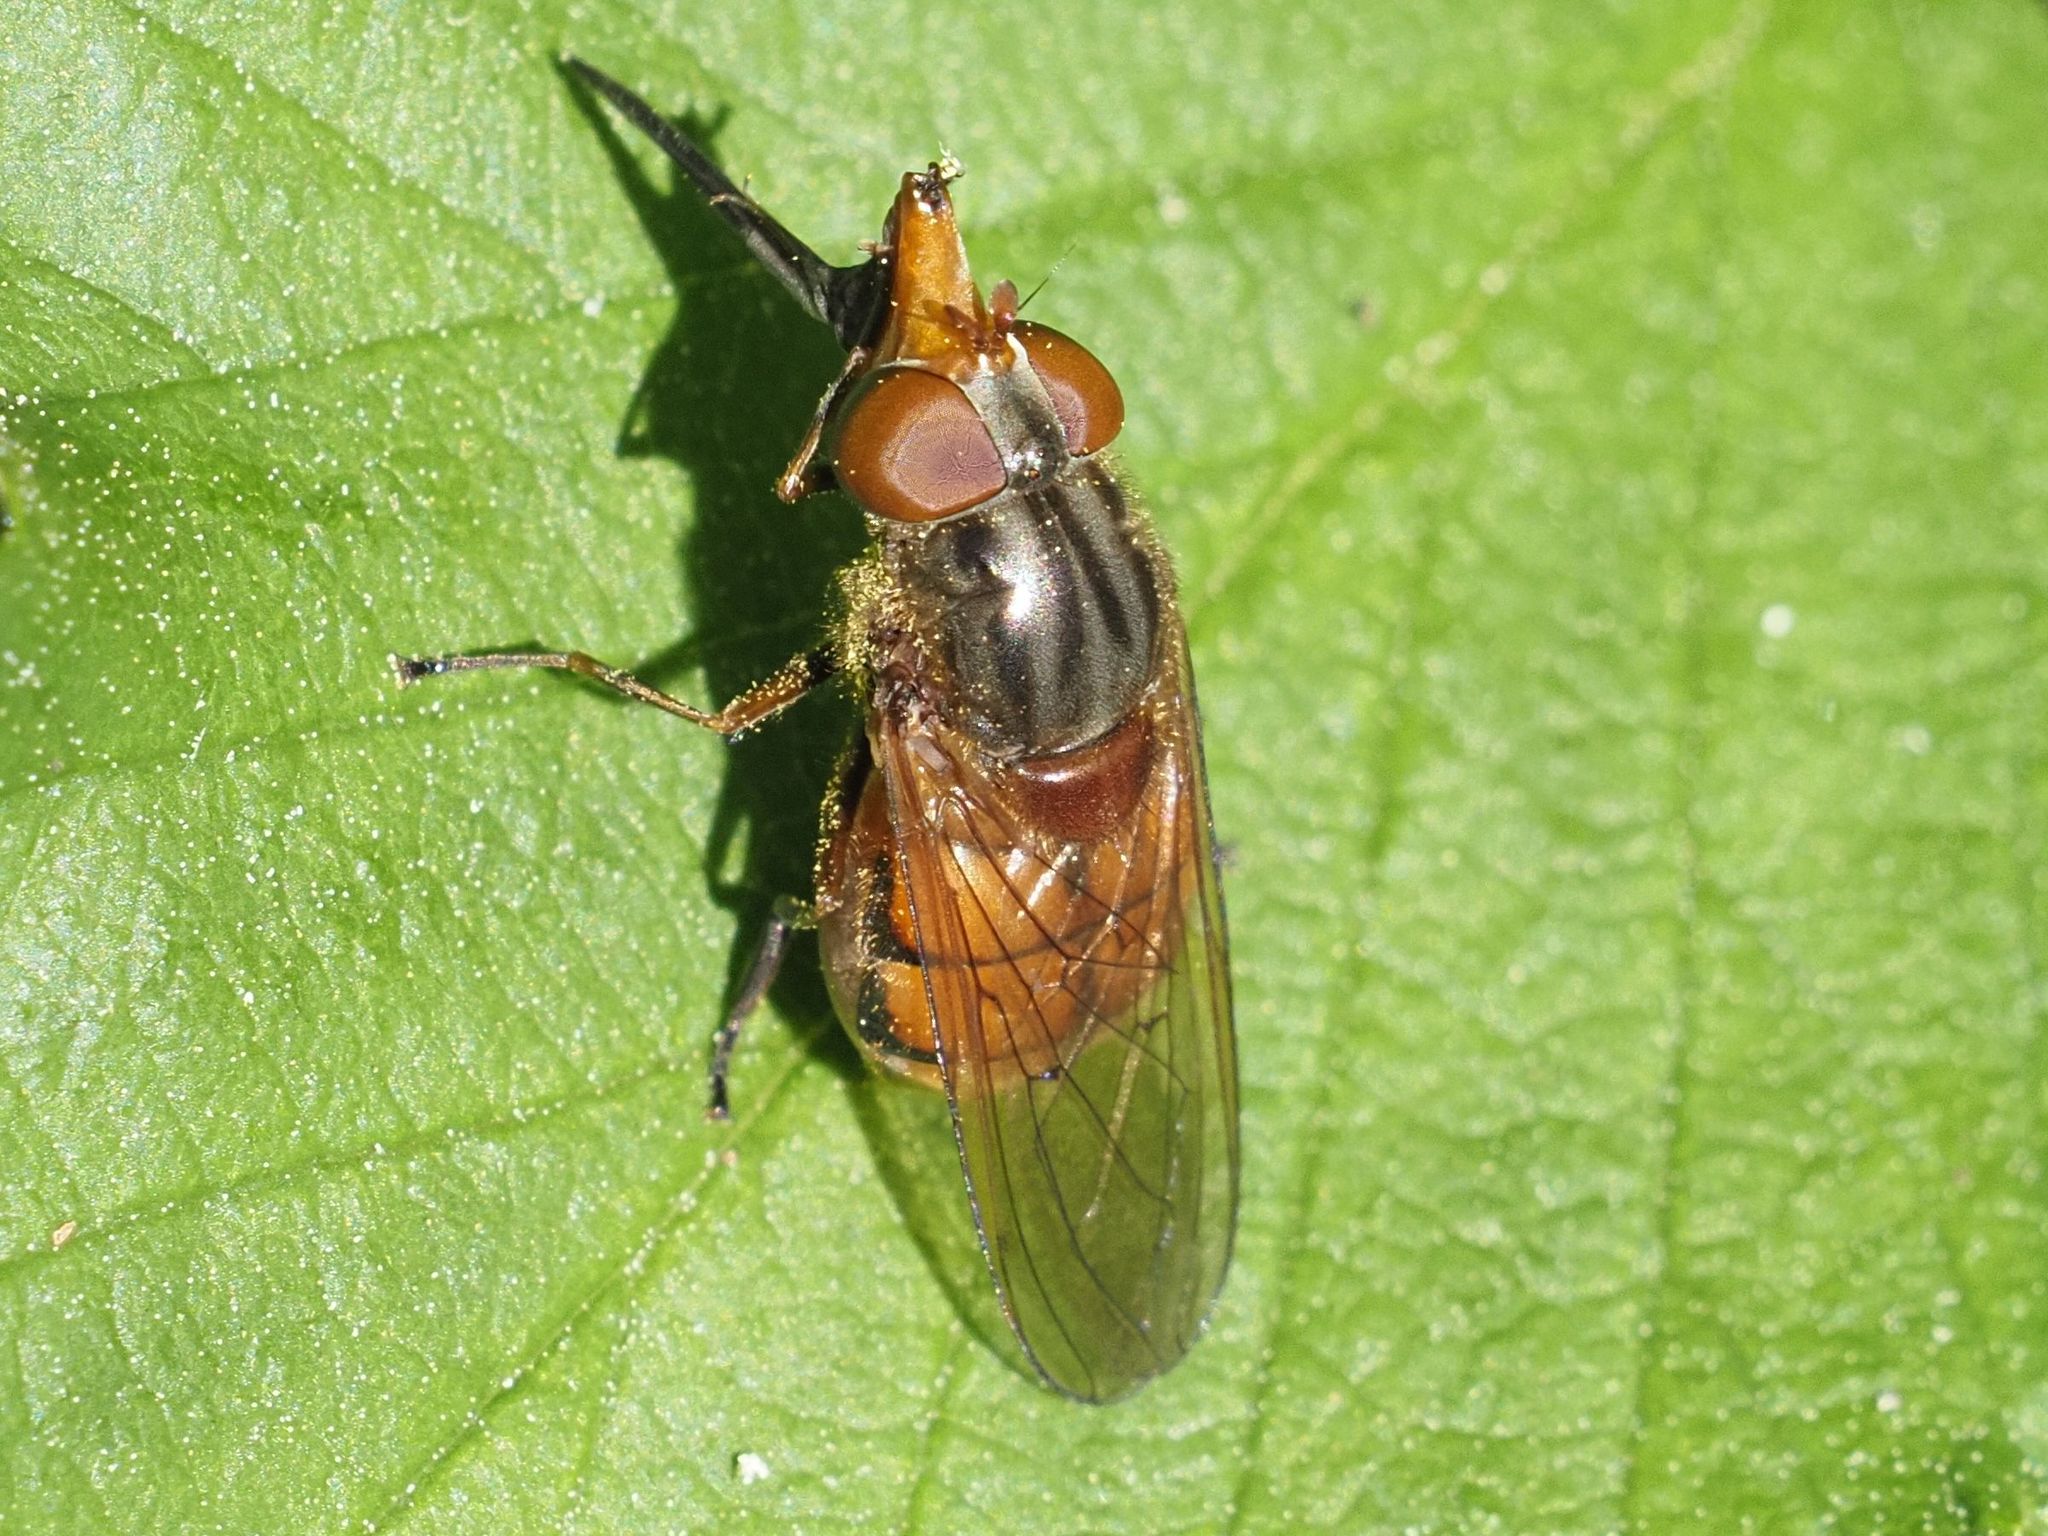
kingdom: Animalia
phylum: Arthropoda
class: Insecta
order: Diptera
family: Syrphidae
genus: Rhingia
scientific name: Rhingia campestris
